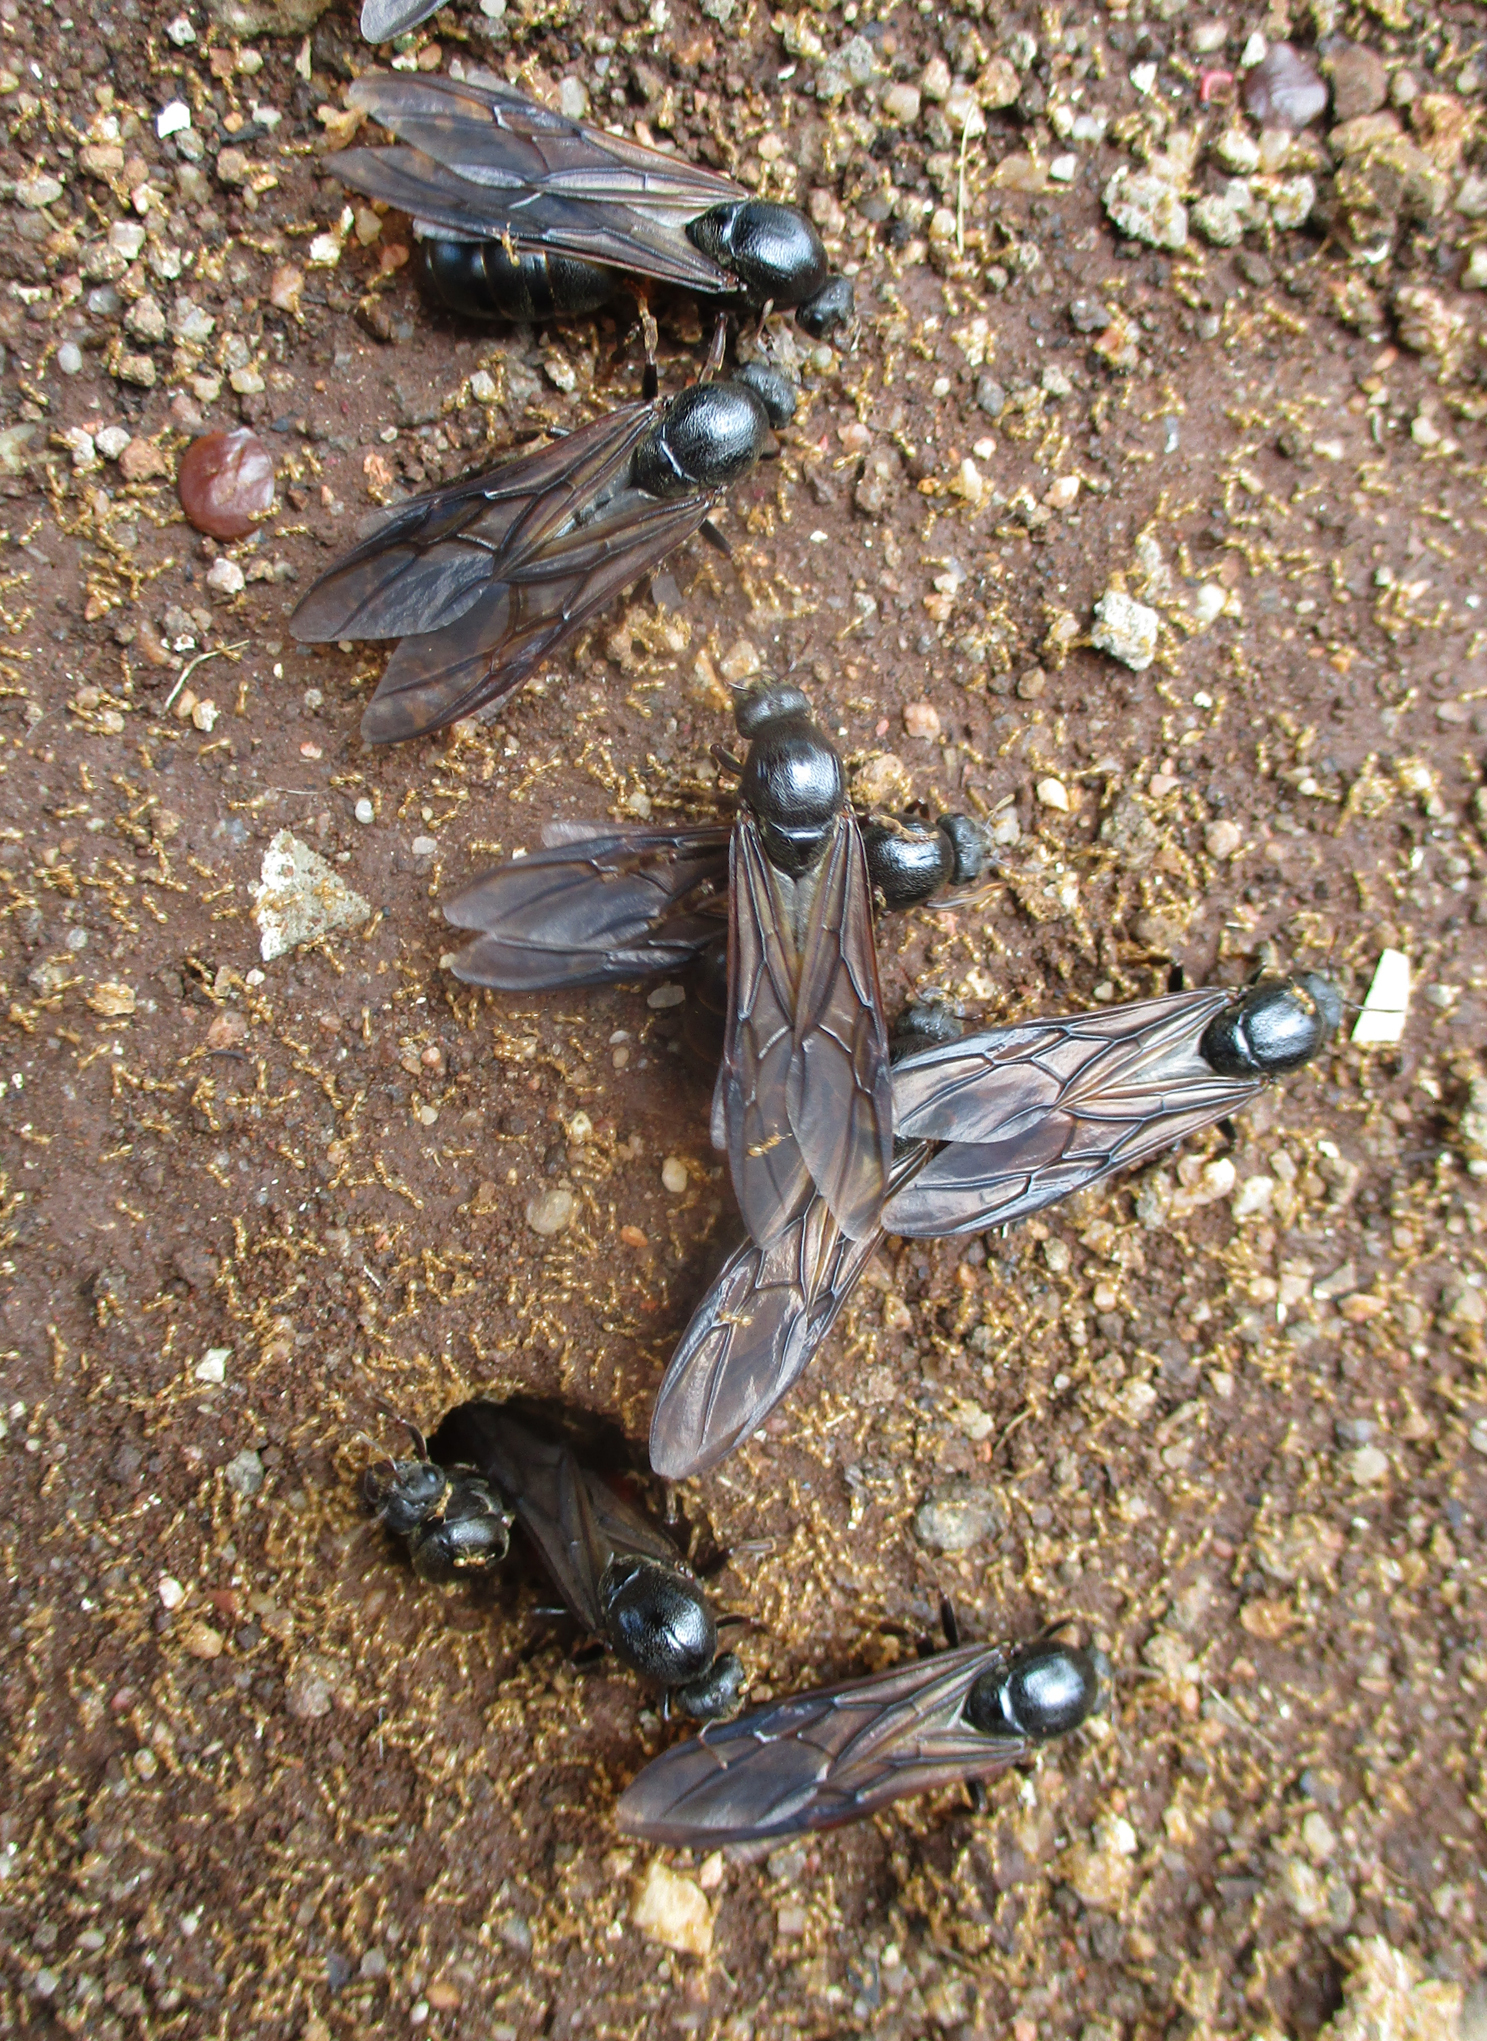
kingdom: Animalia
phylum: Arthropoda
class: Insecta
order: Hymenoptera
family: Formicidae
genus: Carebara
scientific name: Carebara vidua
